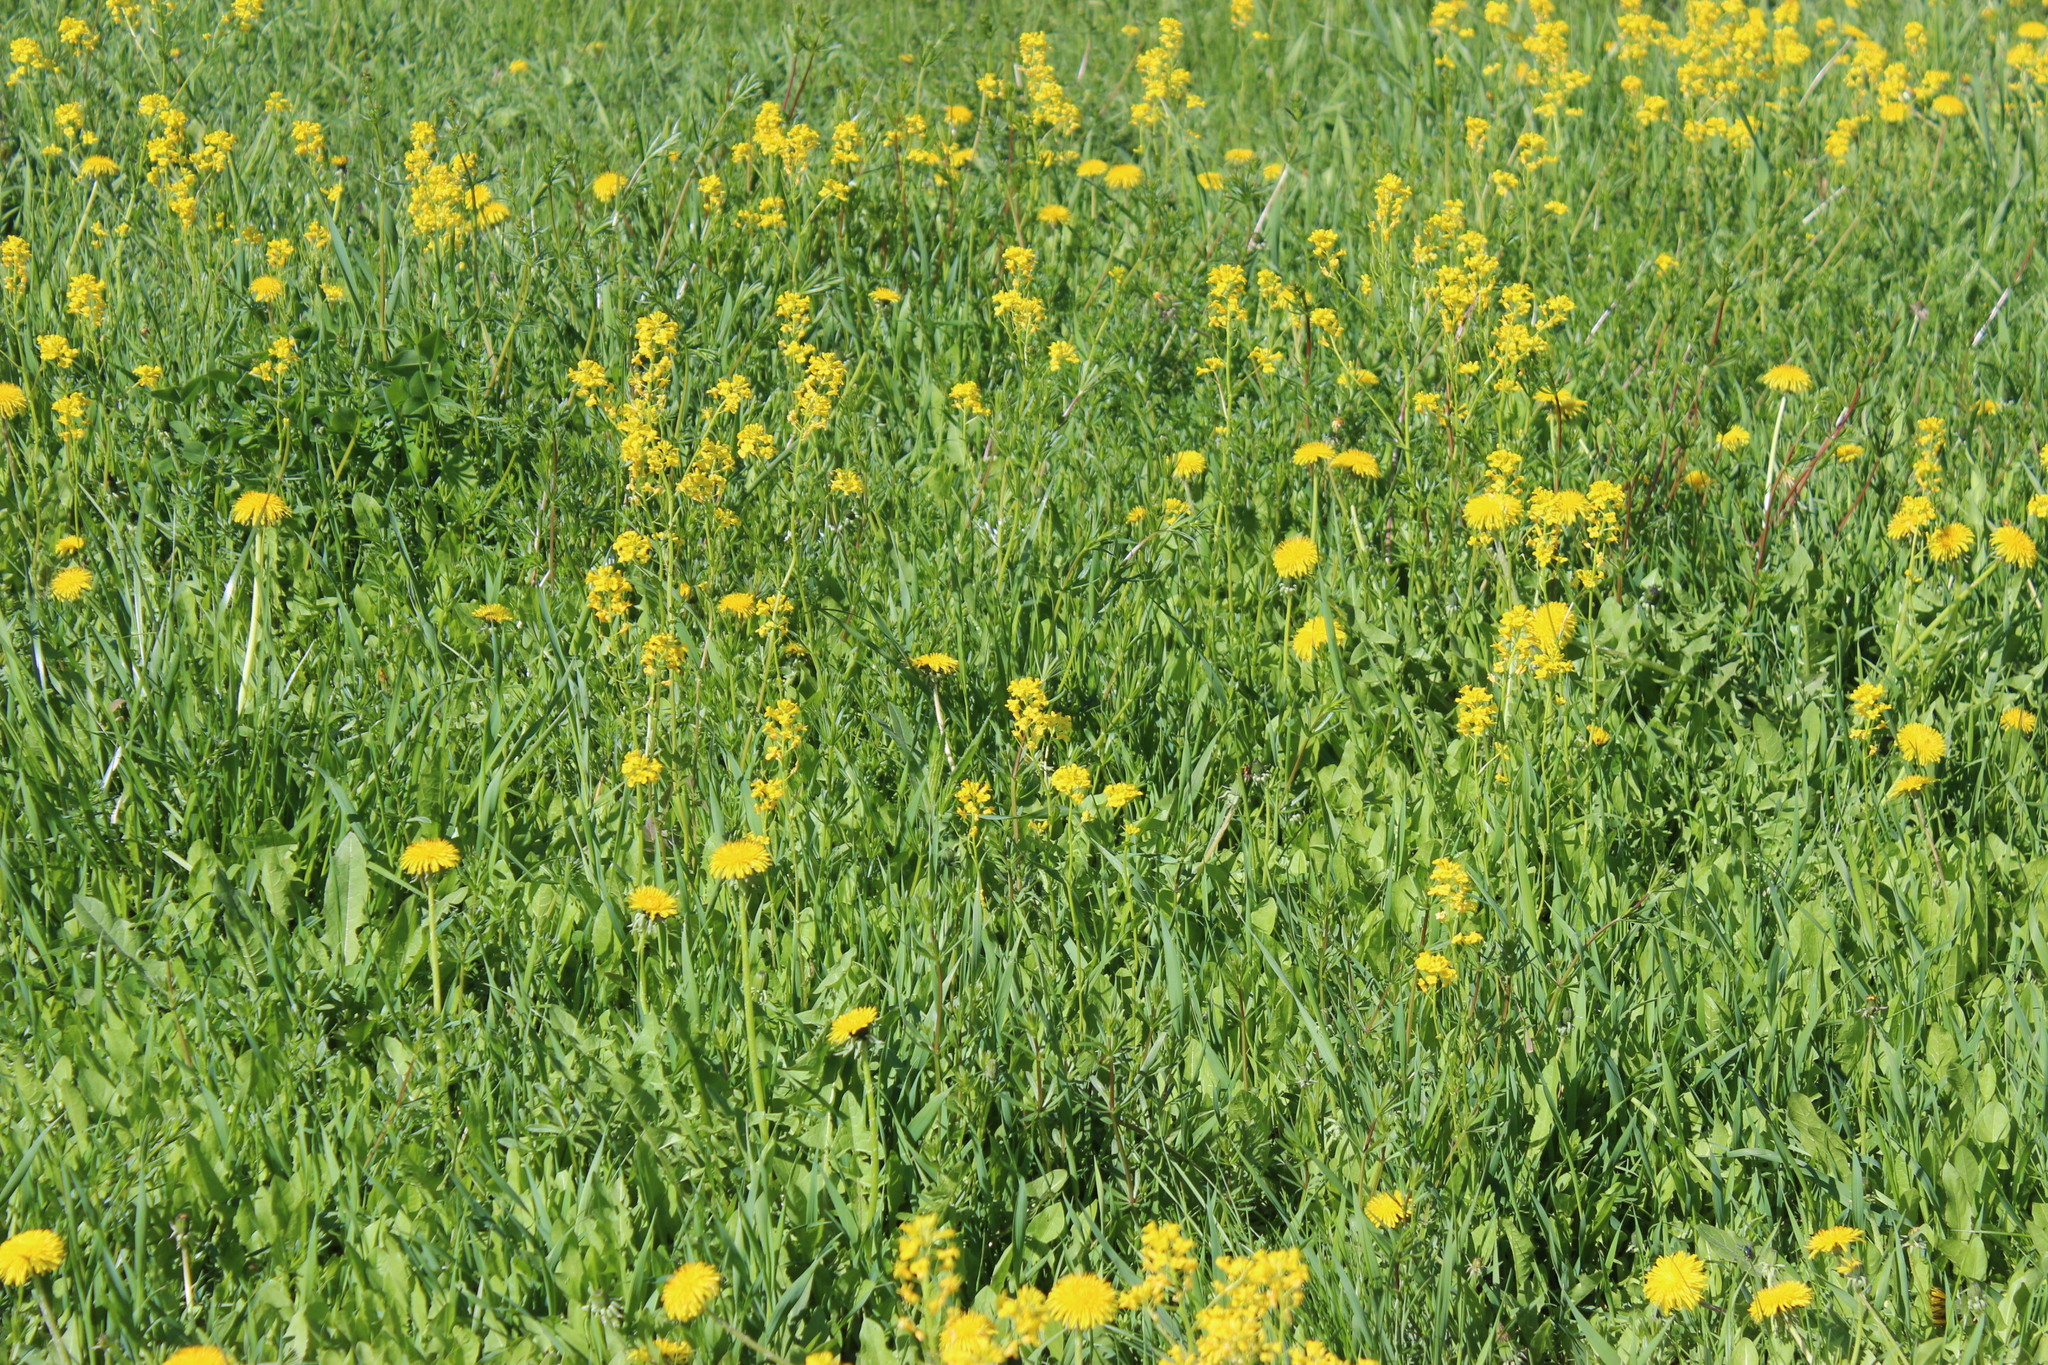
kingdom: Plantae
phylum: Tracheophyta
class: Magnoliopsida
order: Brassicales
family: Brassicaceae
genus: Barbarea
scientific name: Barbarea vulgaris
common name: Cressy-greens
